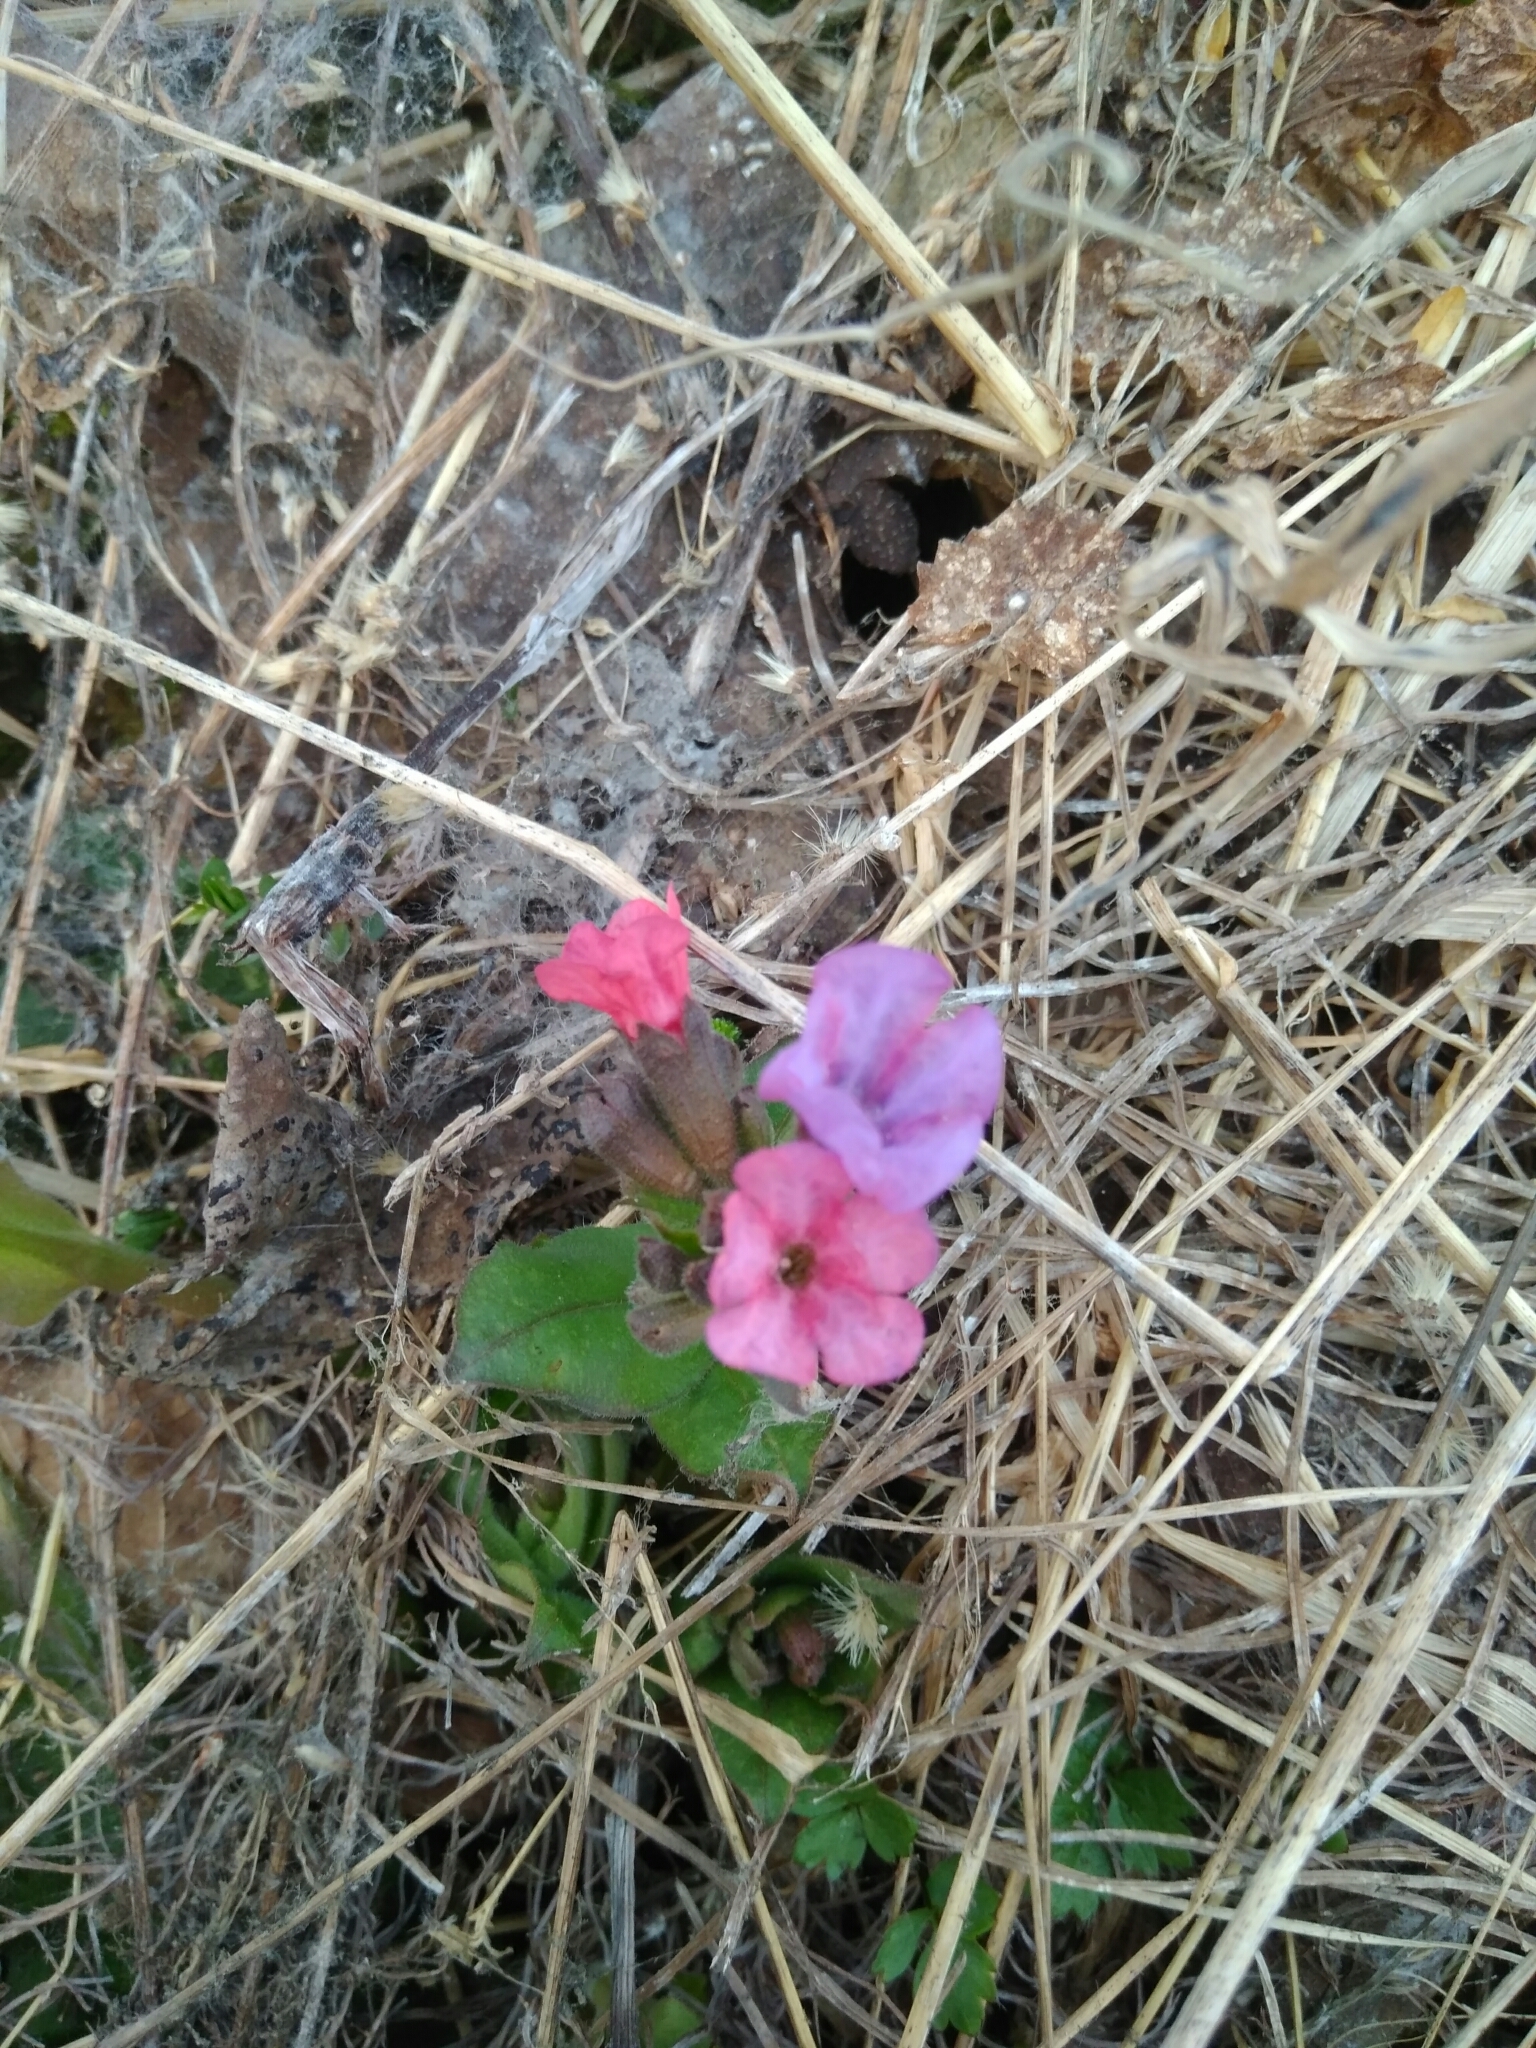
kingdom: Plantae
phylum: Tracheophyta
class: Magnoliopsida
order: Boraginales
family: Boraginaceae
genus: Pulmonaria
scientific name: Pulmonaria obscura
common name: Suffolk lungwort
